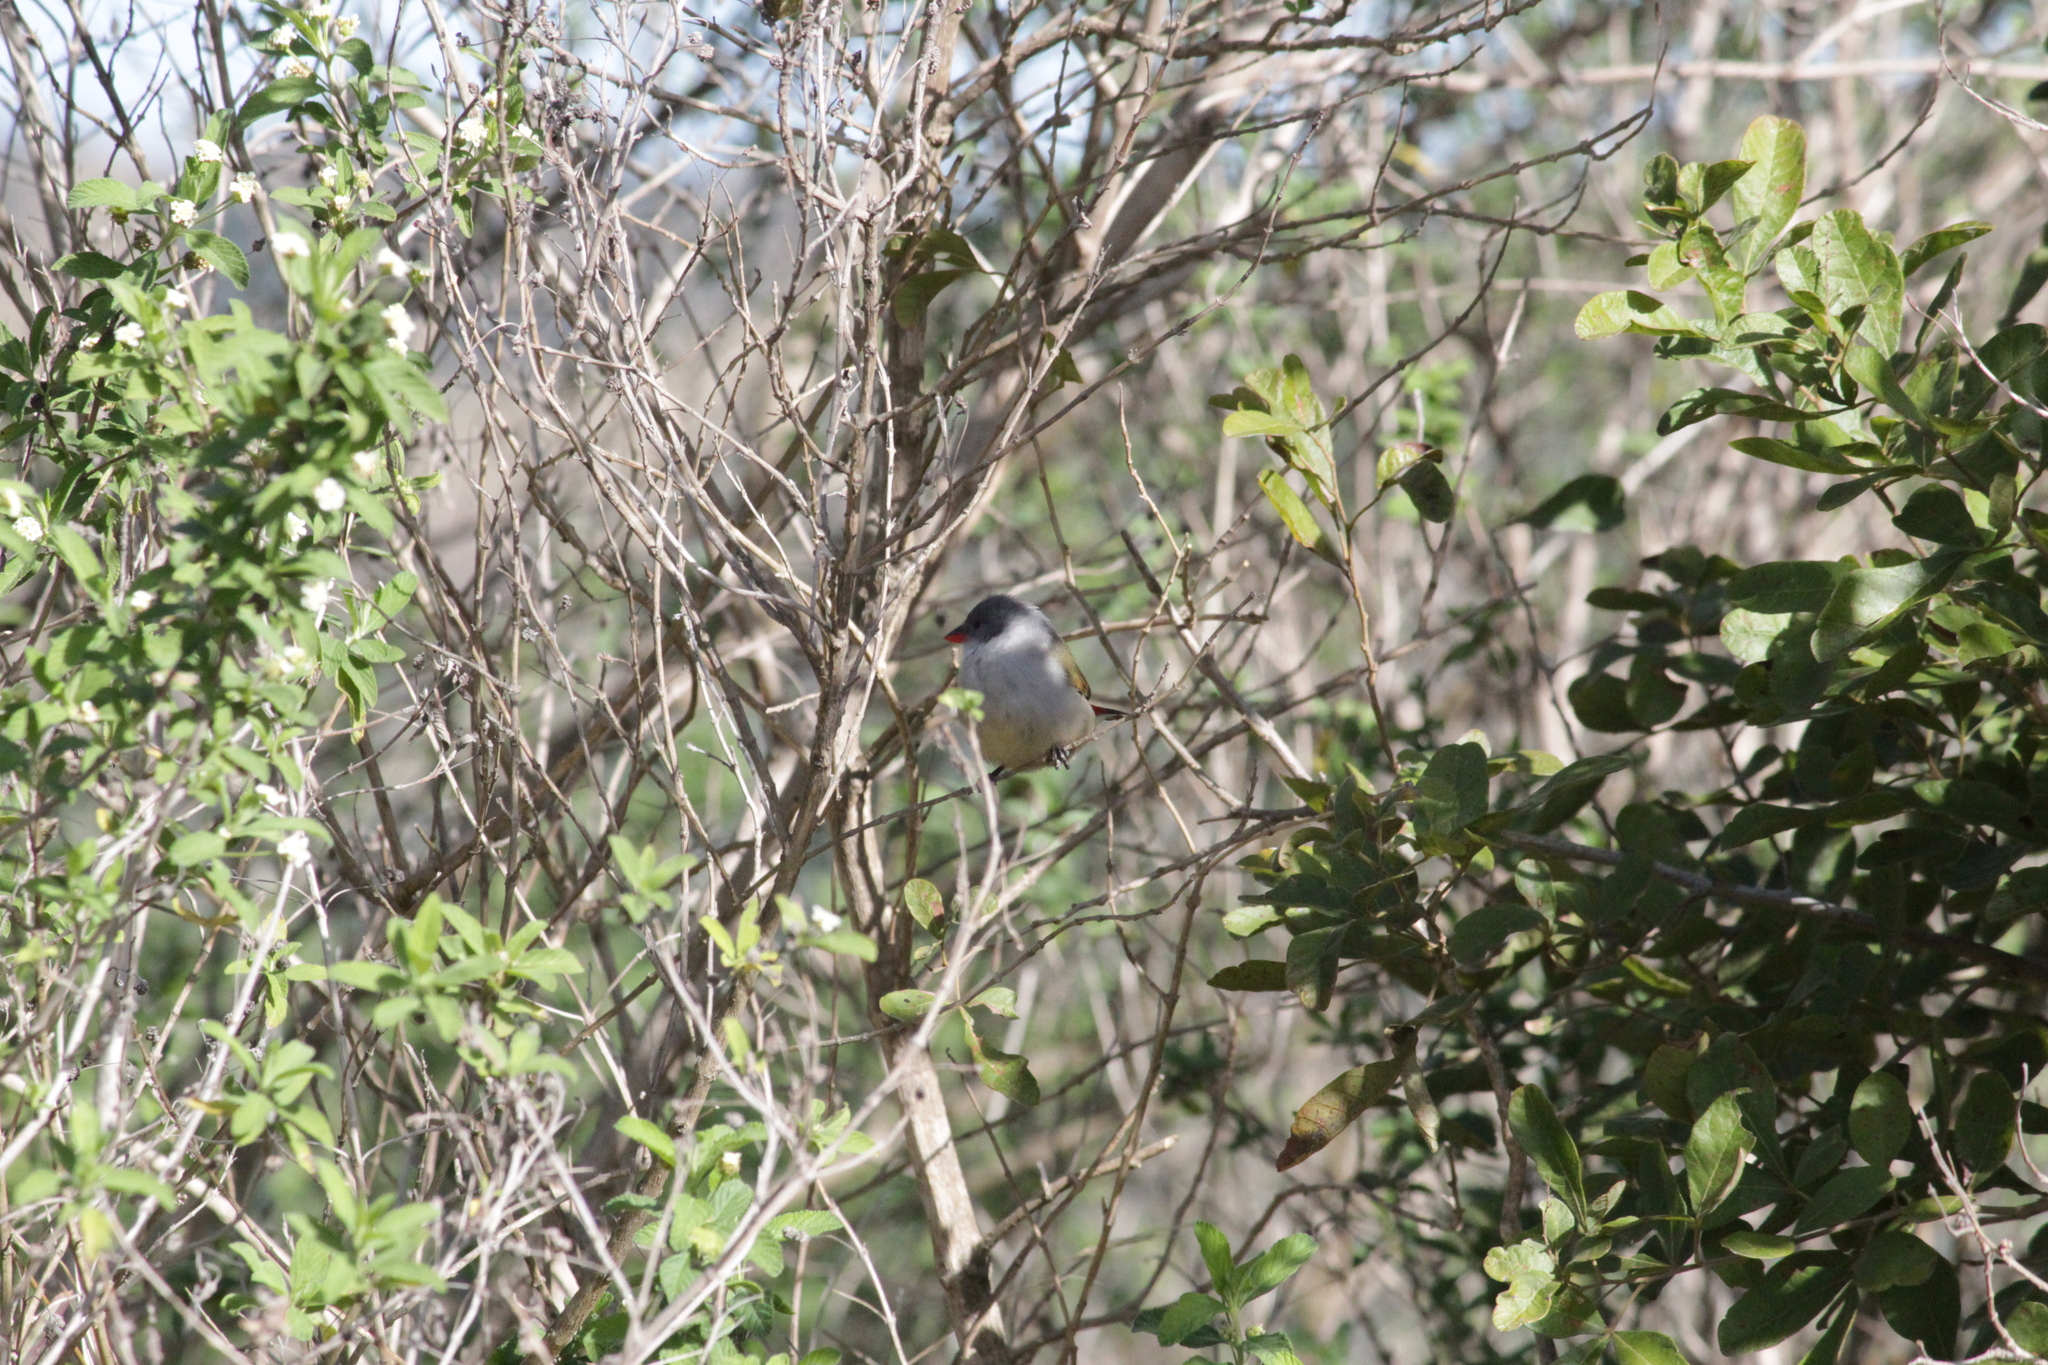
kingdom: Animalia
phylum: Chordata
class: Aves
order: Passeriformes
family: Estrildidae
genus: Coccopygia
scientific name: Coccopygia melanotis
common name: Swee waxbill
